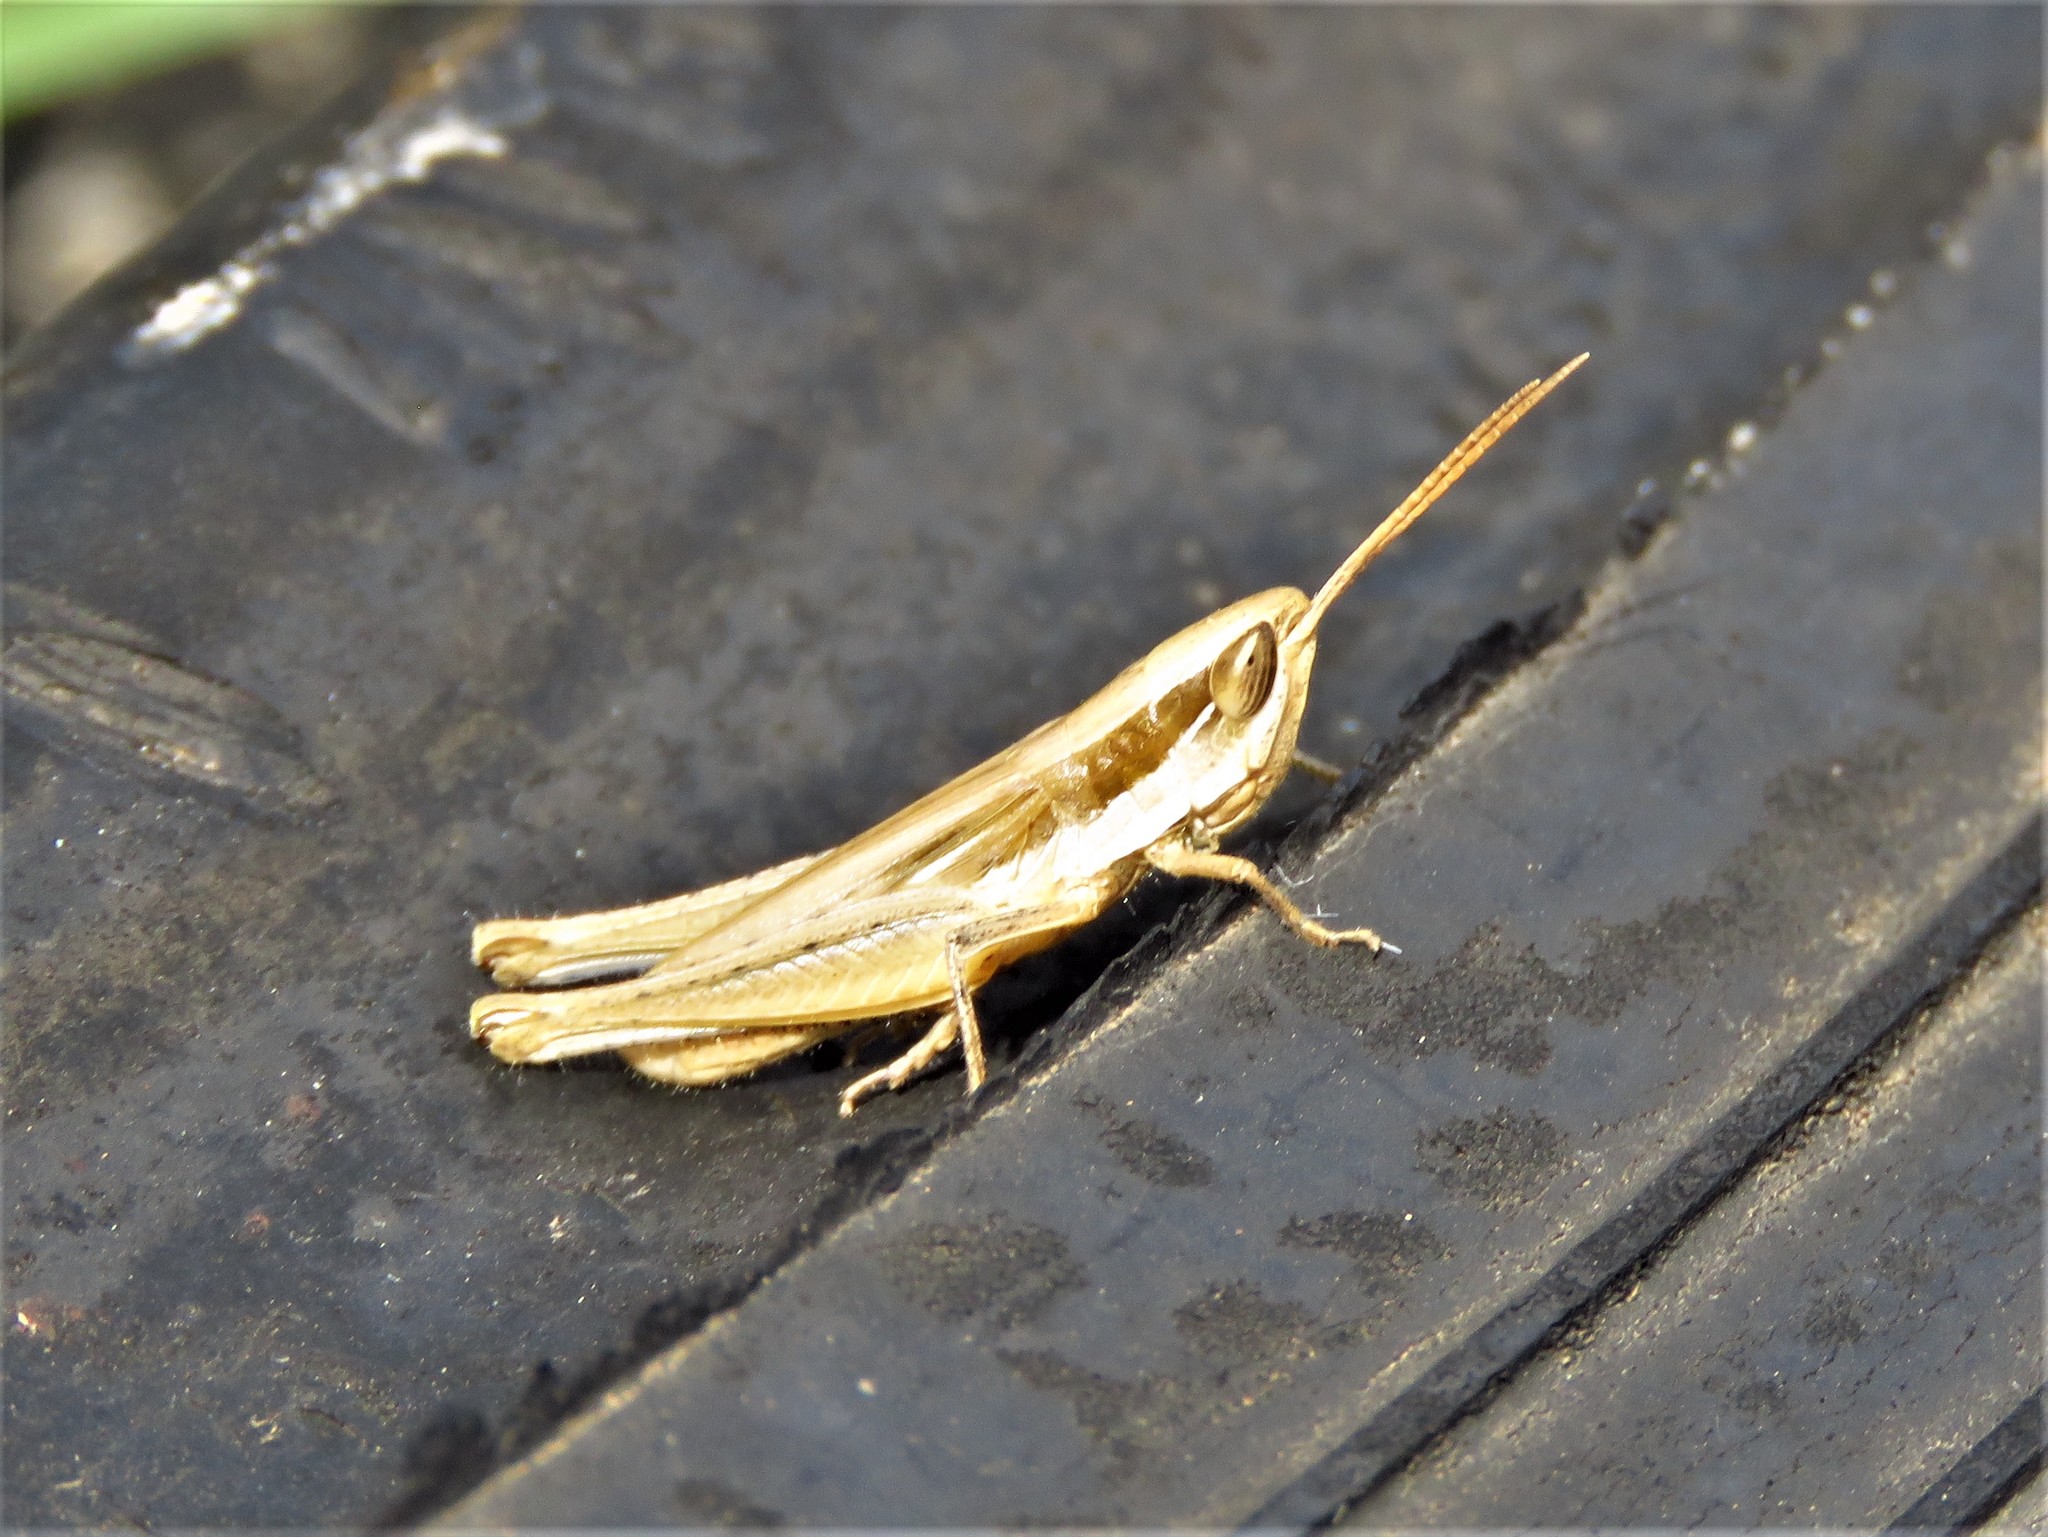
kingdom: Animalia
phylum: Arthropoda
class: Insecta
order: Orthoptera
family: Acrididae
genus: Opeia
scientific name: Opeia obscura
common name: Obscure grasshopper
